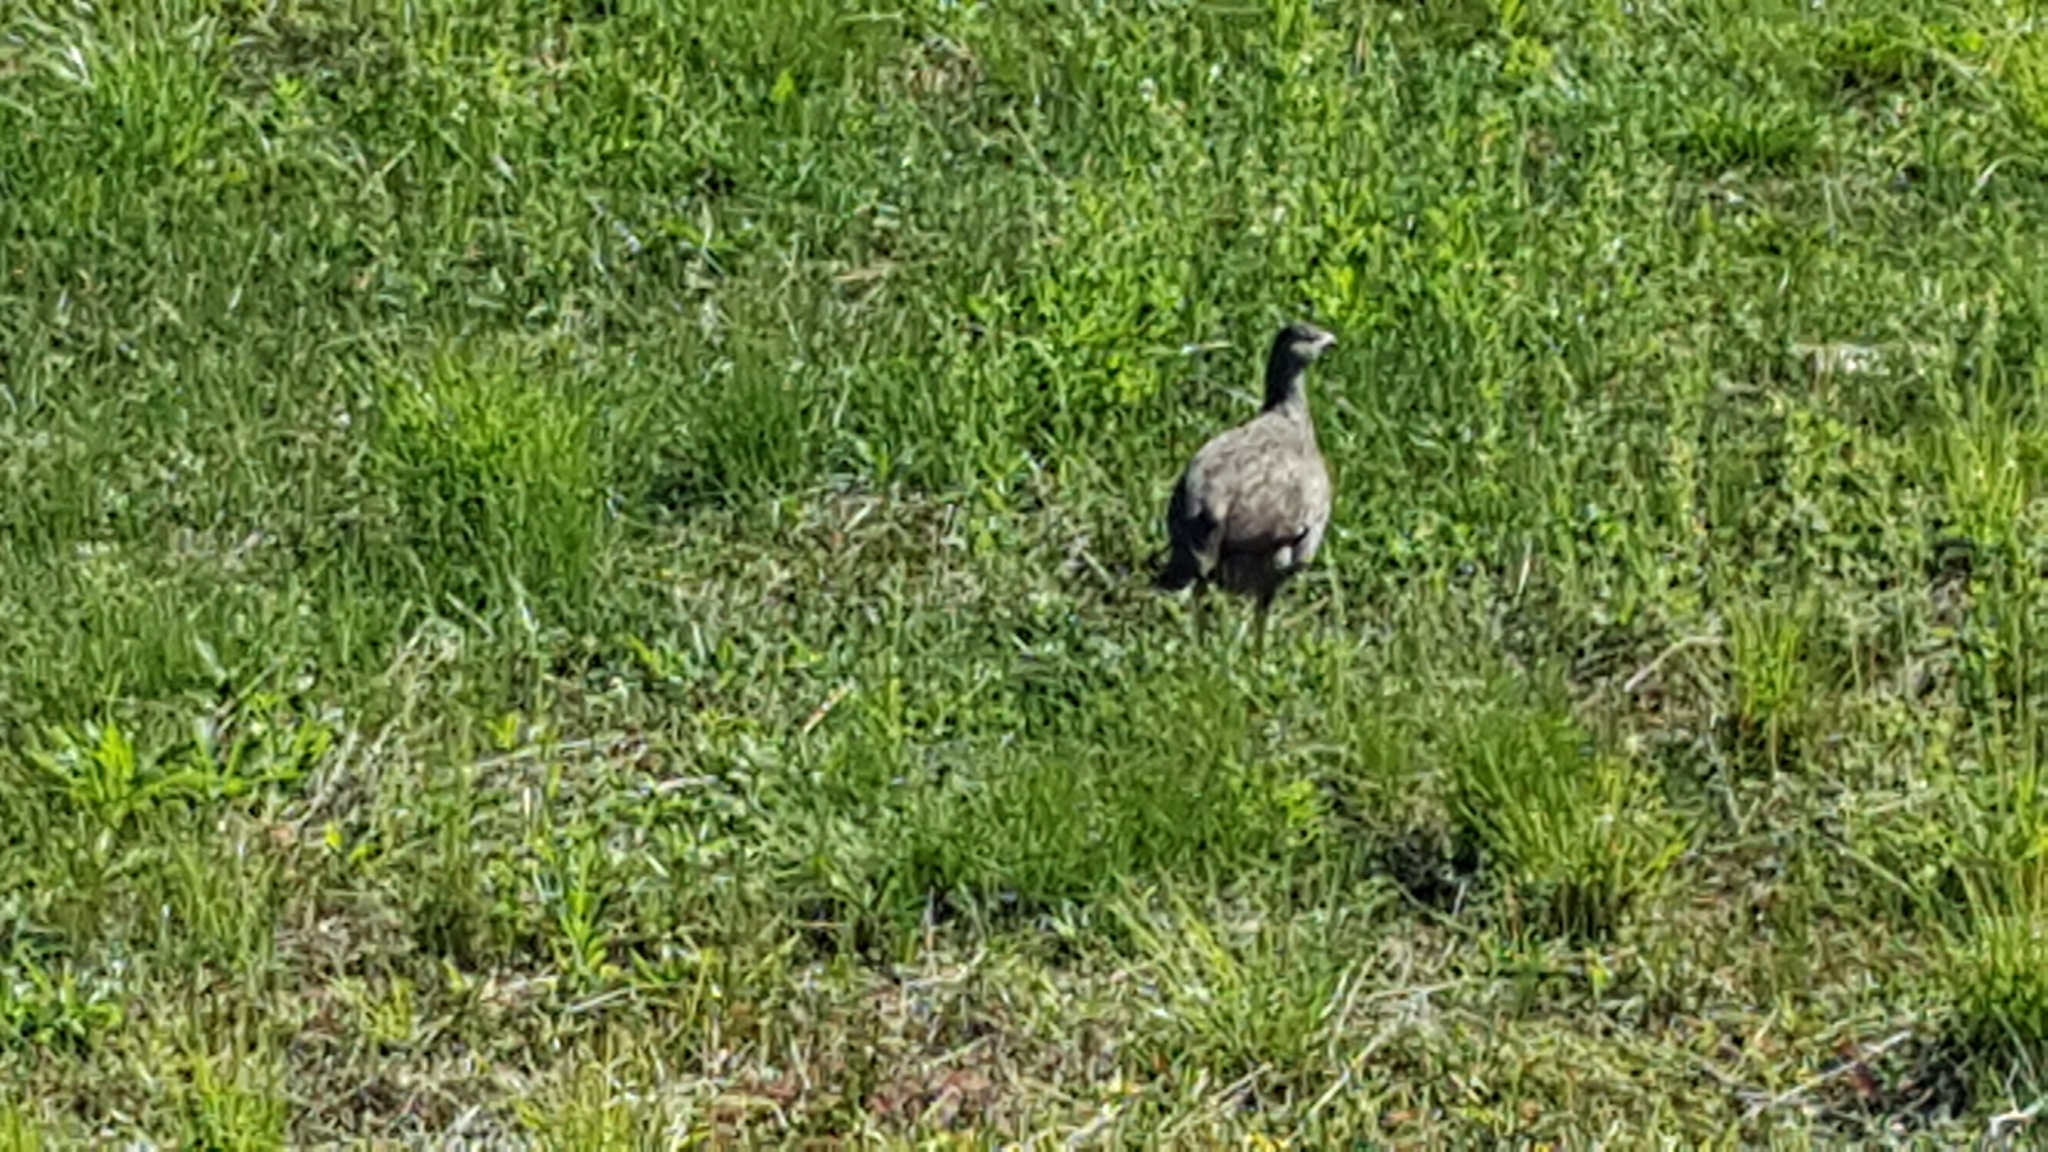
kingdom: Animalia
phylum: Chordata
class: Aves
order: Galliformes
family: Phasianidae
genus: Pternistis
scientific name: Pternistis capensis
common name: Cape spurfowl
